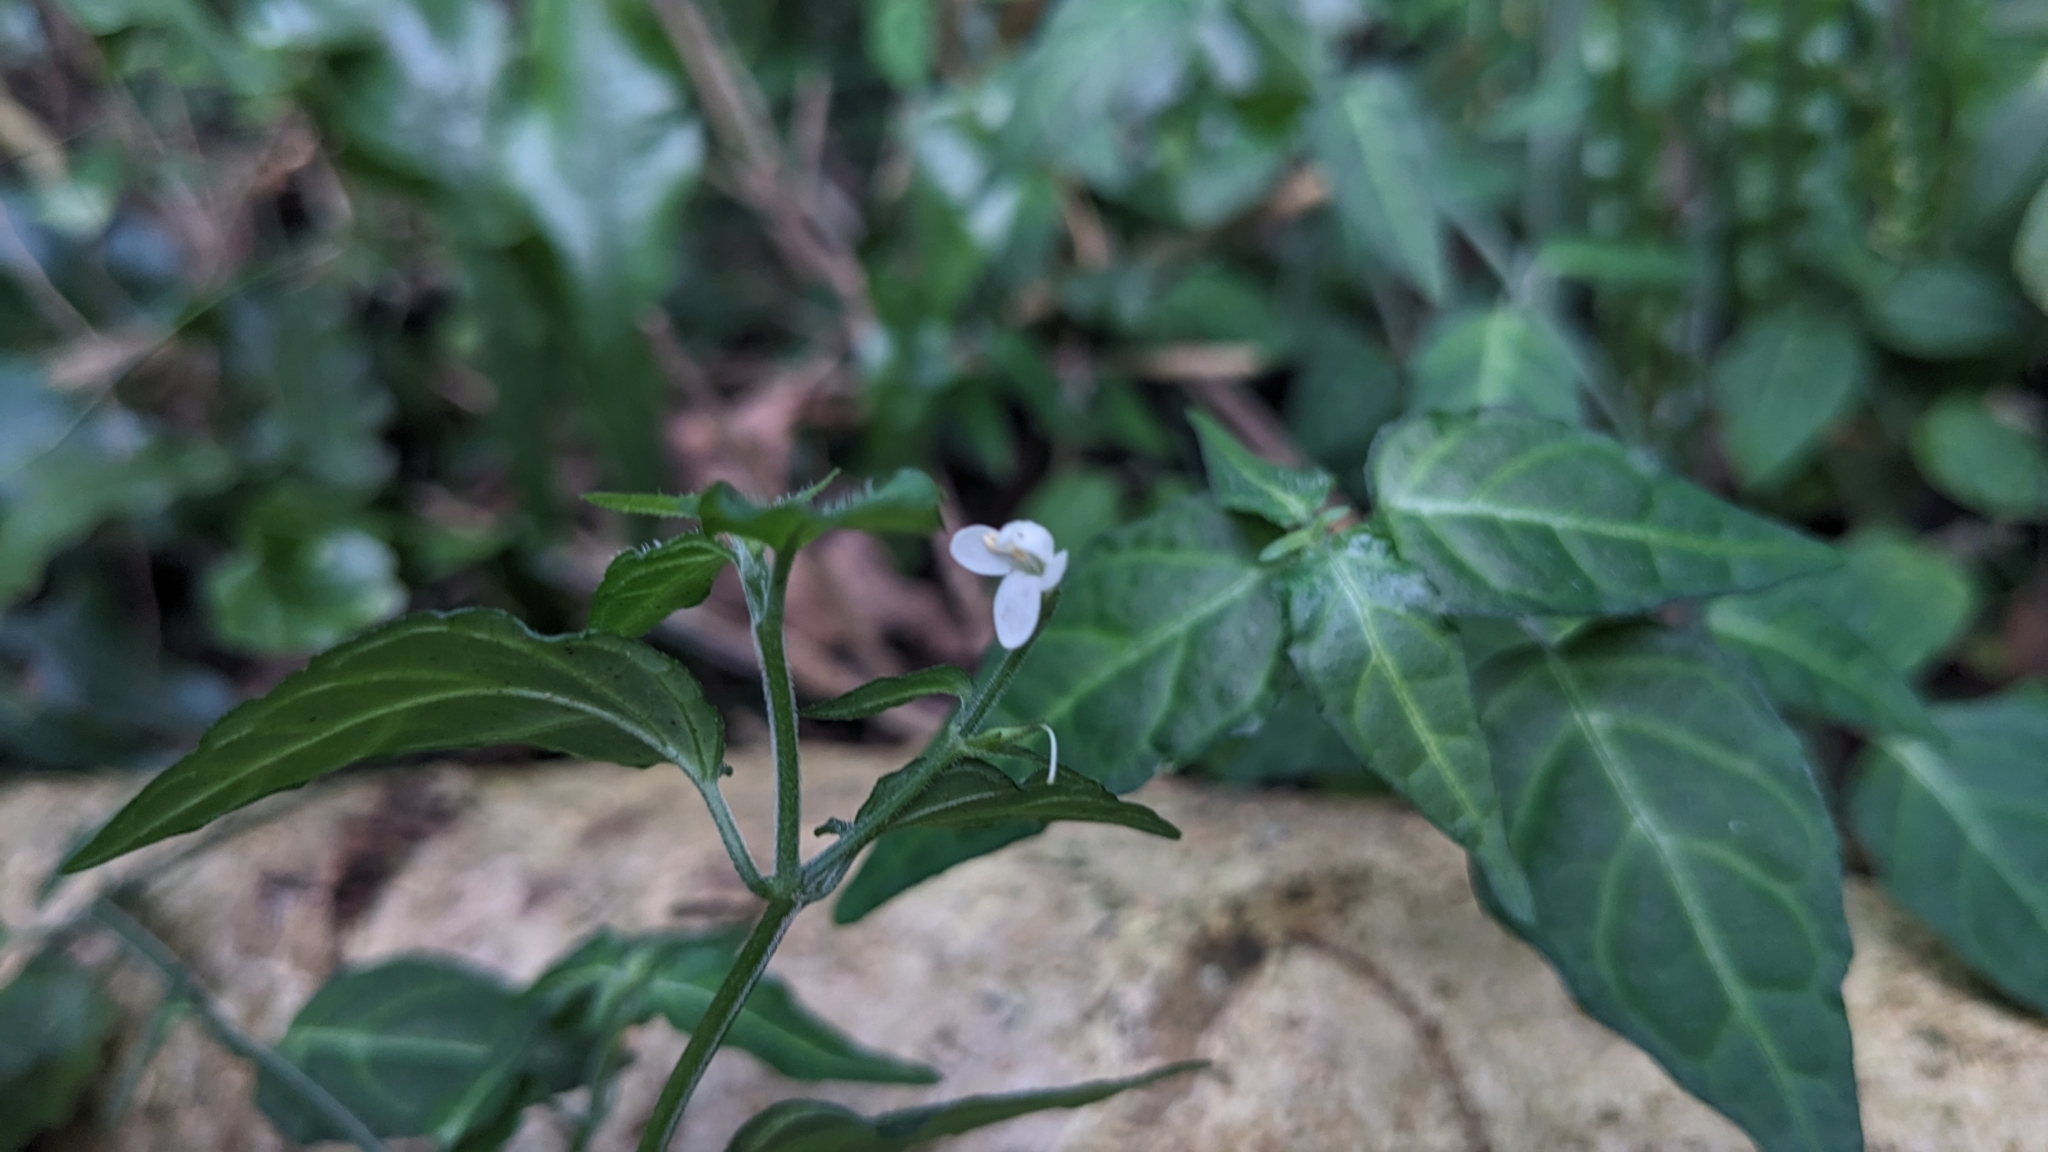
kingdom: Plantae
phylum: Tracheophyta
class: Magnoliopsida
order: Lamiales
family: Acanthaceae
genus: Kudoacanthus
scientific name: Kudoacanthus albonervosus
